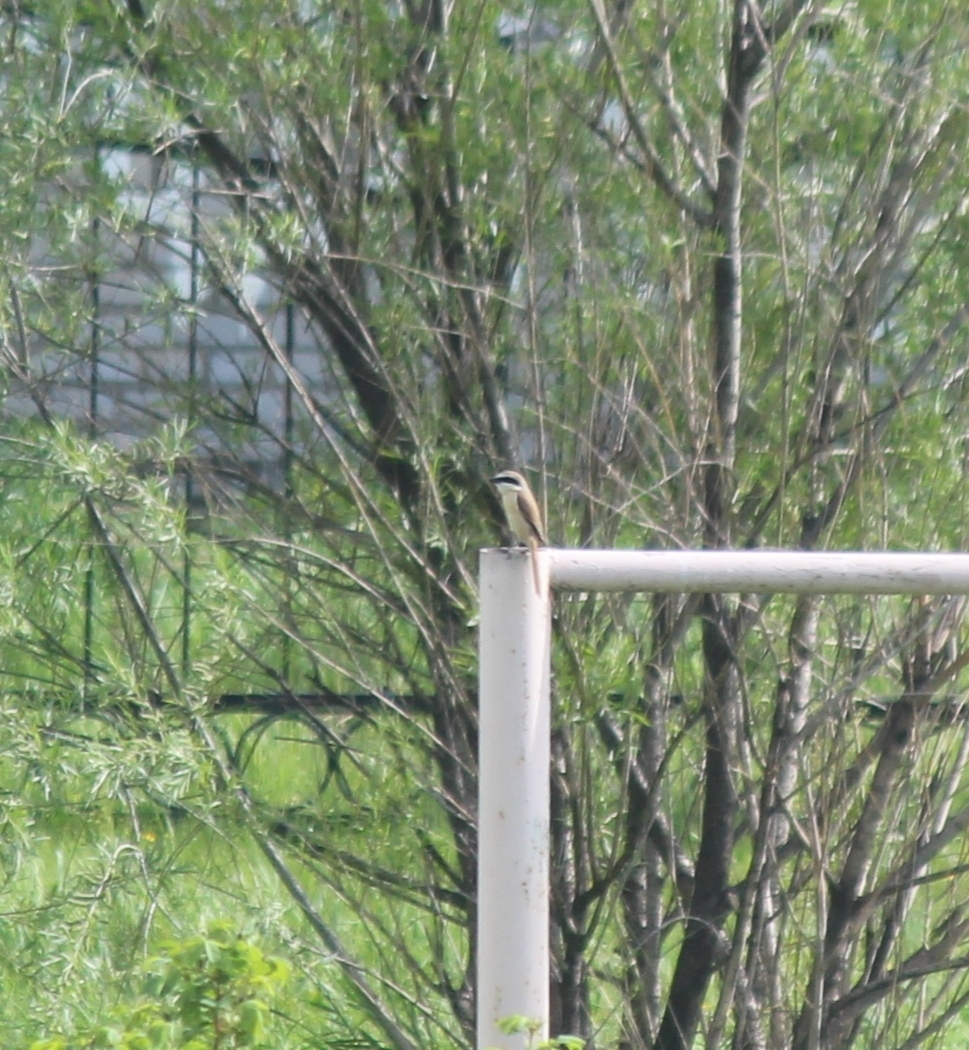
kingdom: Animalia
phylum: Chordata
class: Aves
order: Passeriformes
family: Laniidae
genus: Lanius
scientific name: Lanius cristatus
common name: Brown shrike
